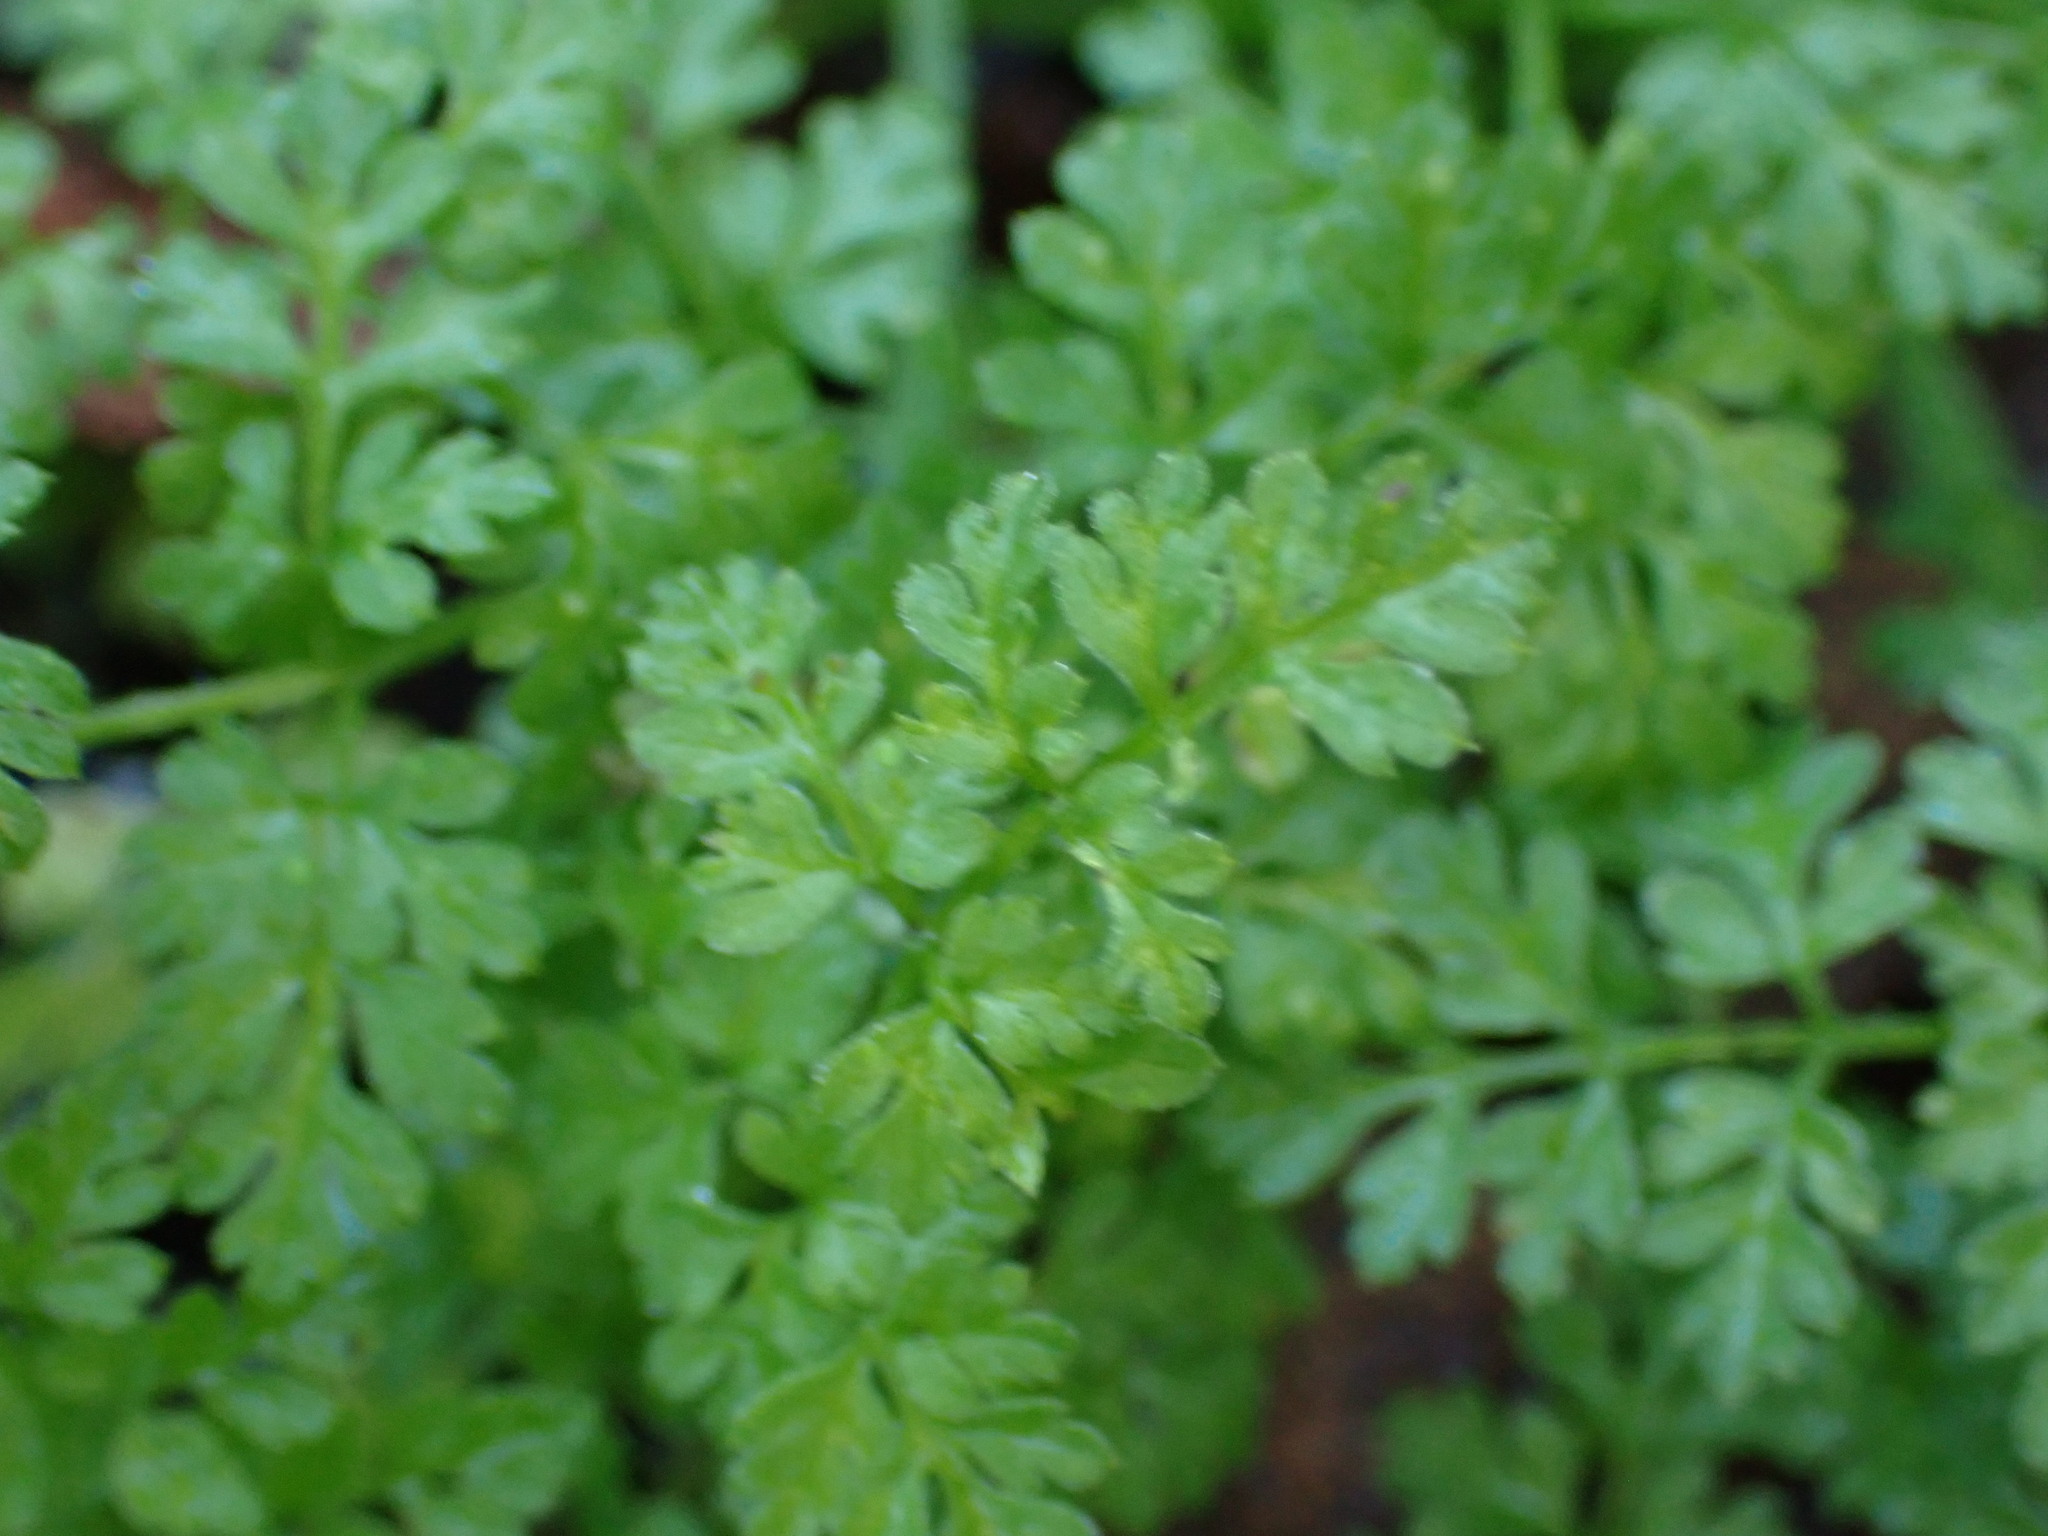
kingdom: Plantae
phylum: Tracheophyta
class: Magnoliopsida
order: Apiales
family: Apiaceae
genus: Anthriscus
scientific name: Anthriscus caucalis
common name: Bur chervil
